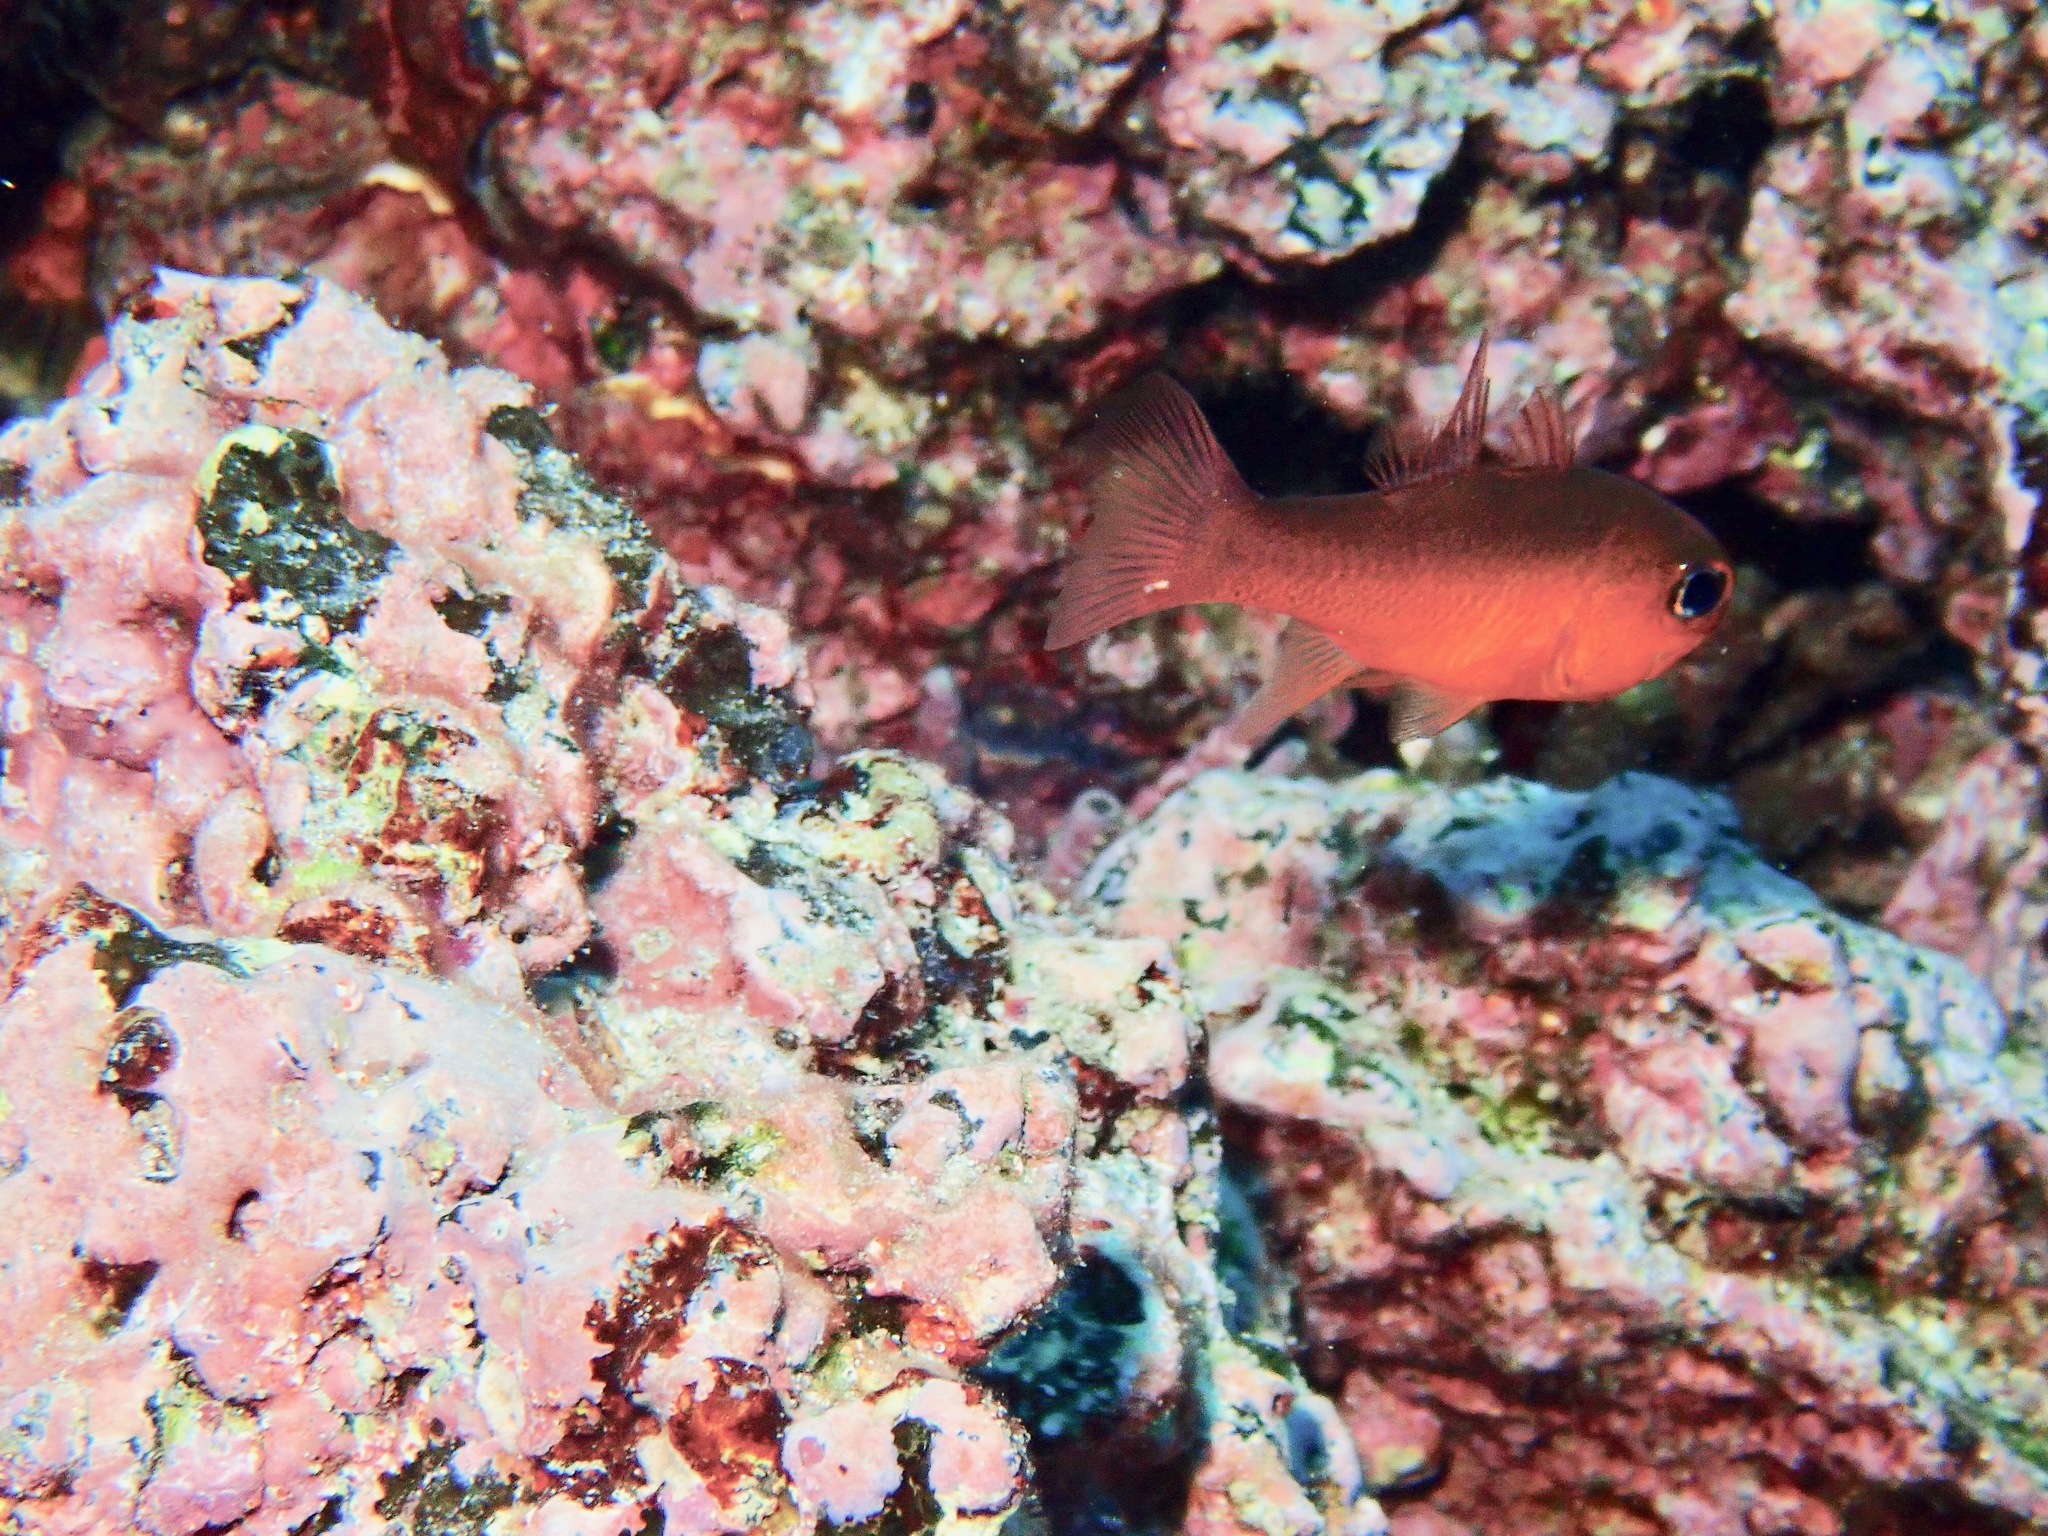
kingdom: Animalia
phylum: Chordata
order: Perciformes
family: Apogonidae
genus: Apogon
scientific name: Apogon atradorsatus
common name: Blacktip cardinalfish
